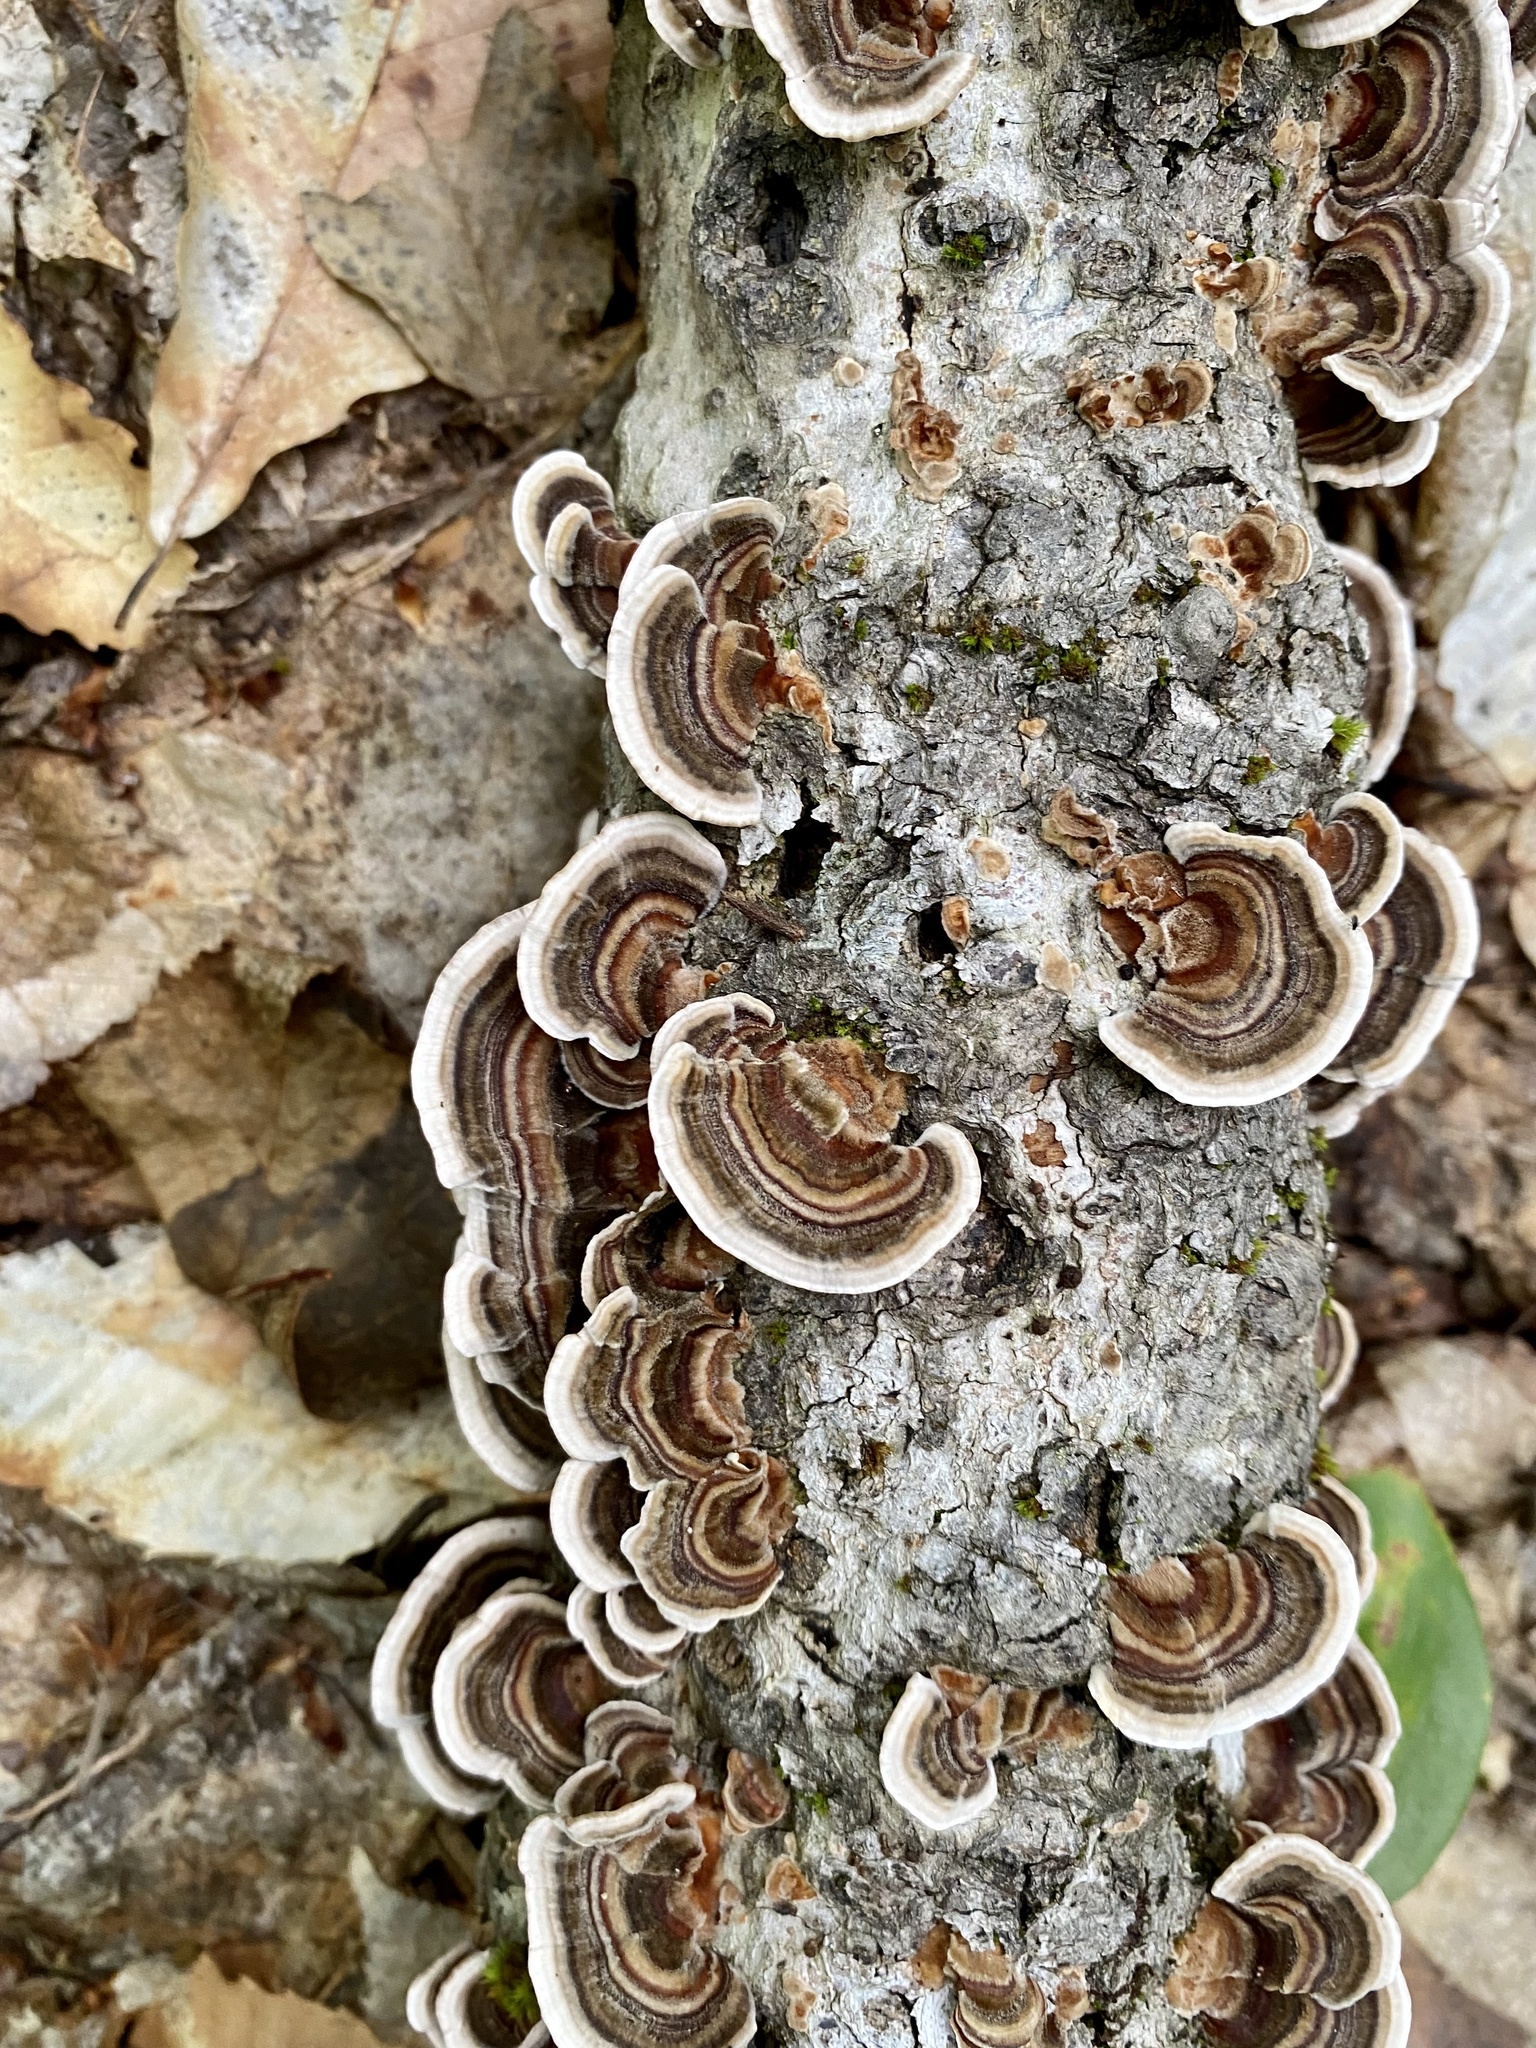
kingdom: Fungi
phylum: Basidiomycota
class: Agaricomycetes
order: Polyporales
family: Polyporaceae
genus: Trametes
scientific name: Trametes versicolor
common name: Turkeytail
